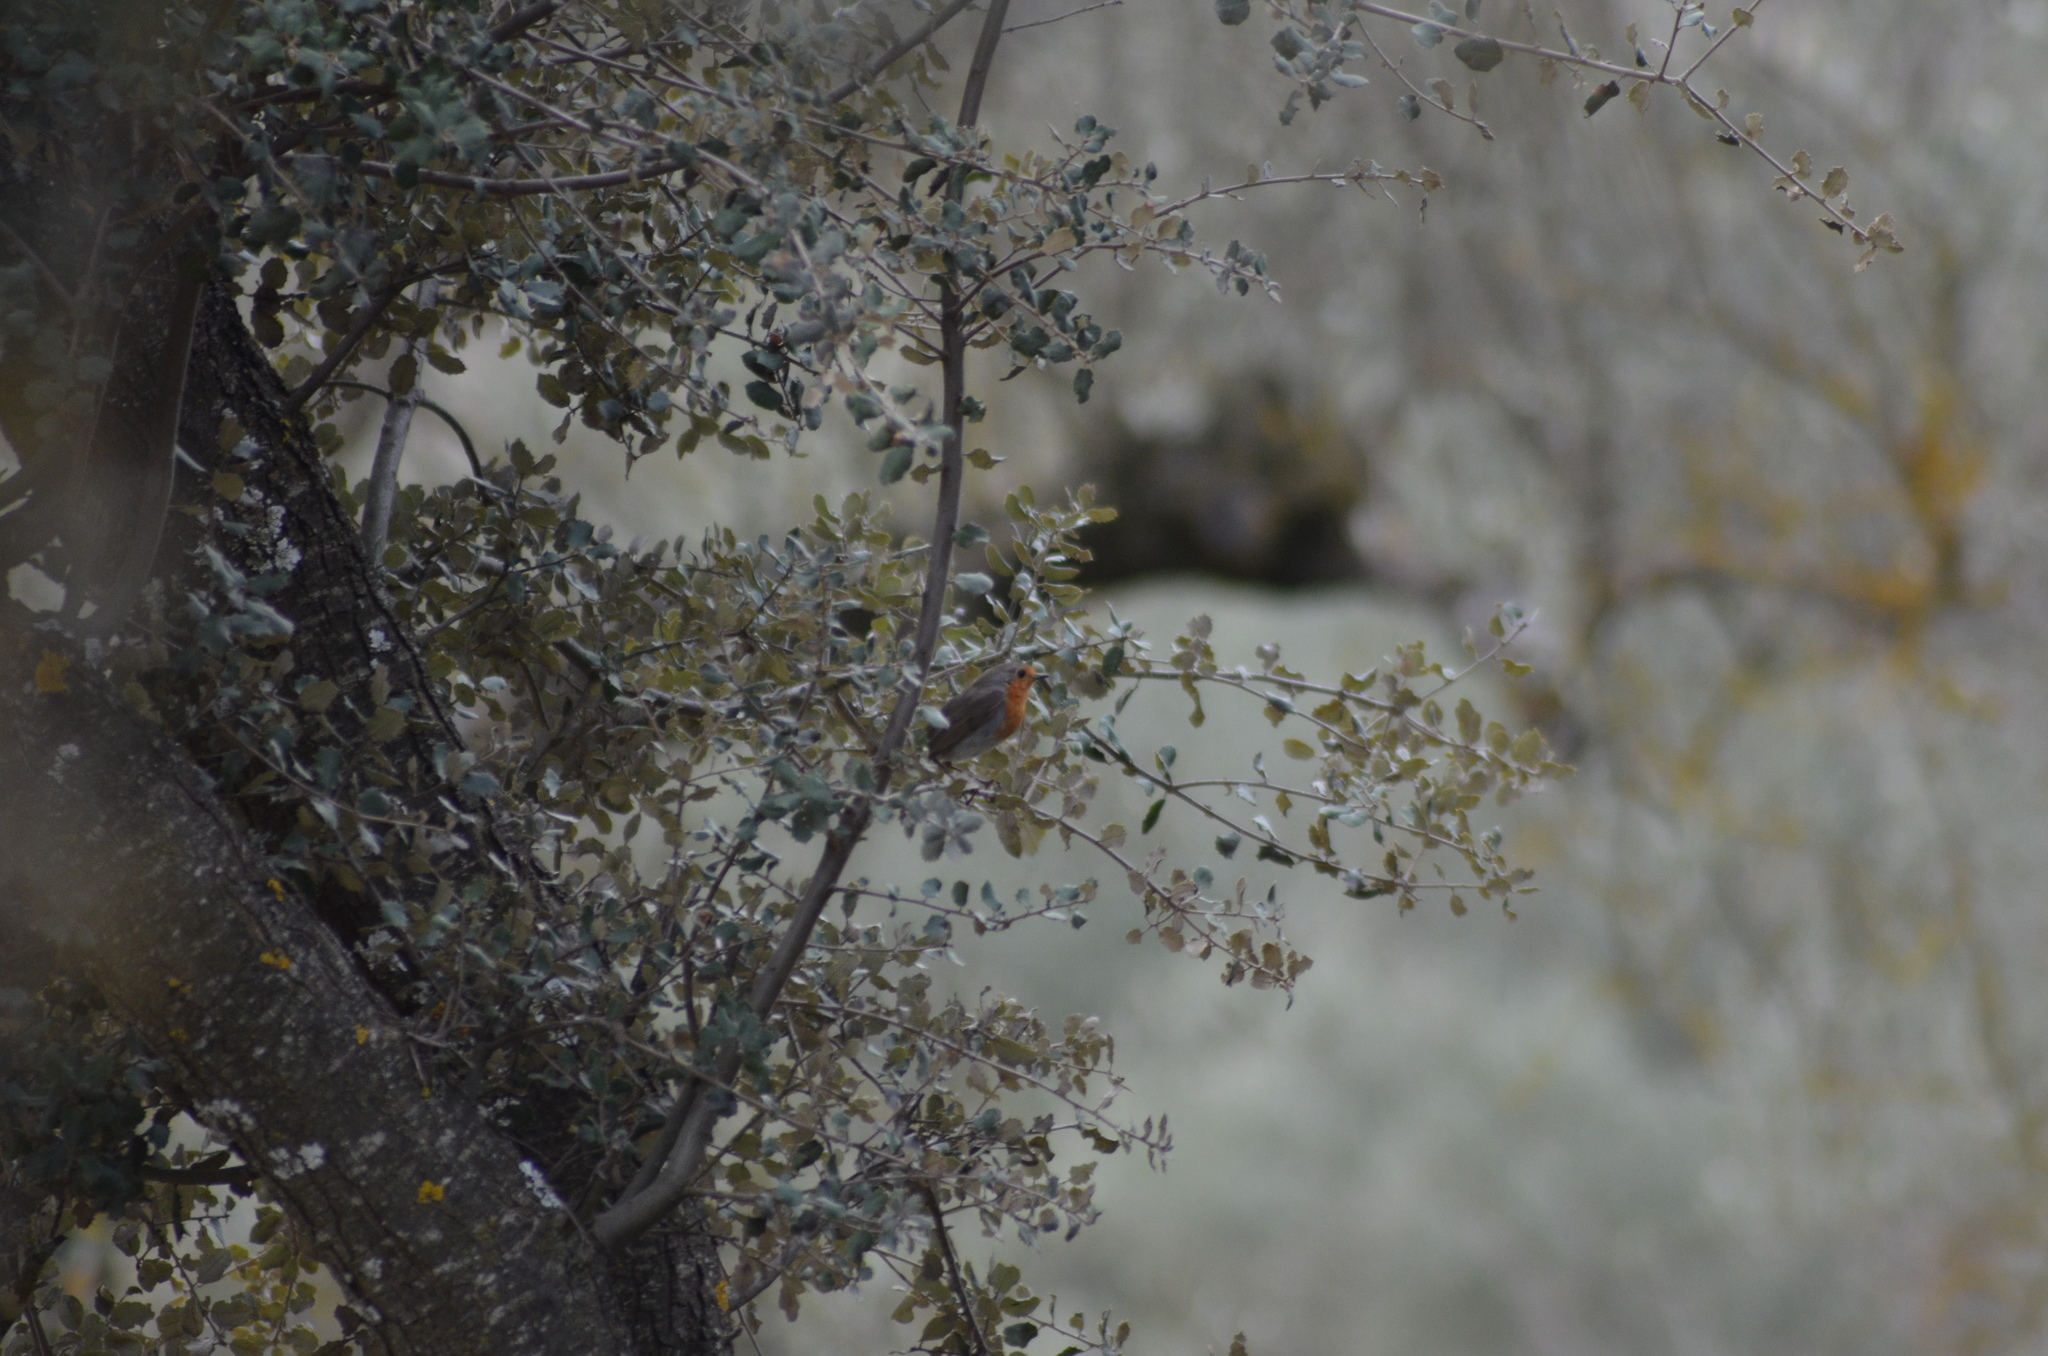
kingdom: Animalia
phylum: Chordata
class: Aves
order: Passeriformes
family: Muscicapidae
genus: Erithacus
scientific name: Erithacus rubecula
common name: European robin
